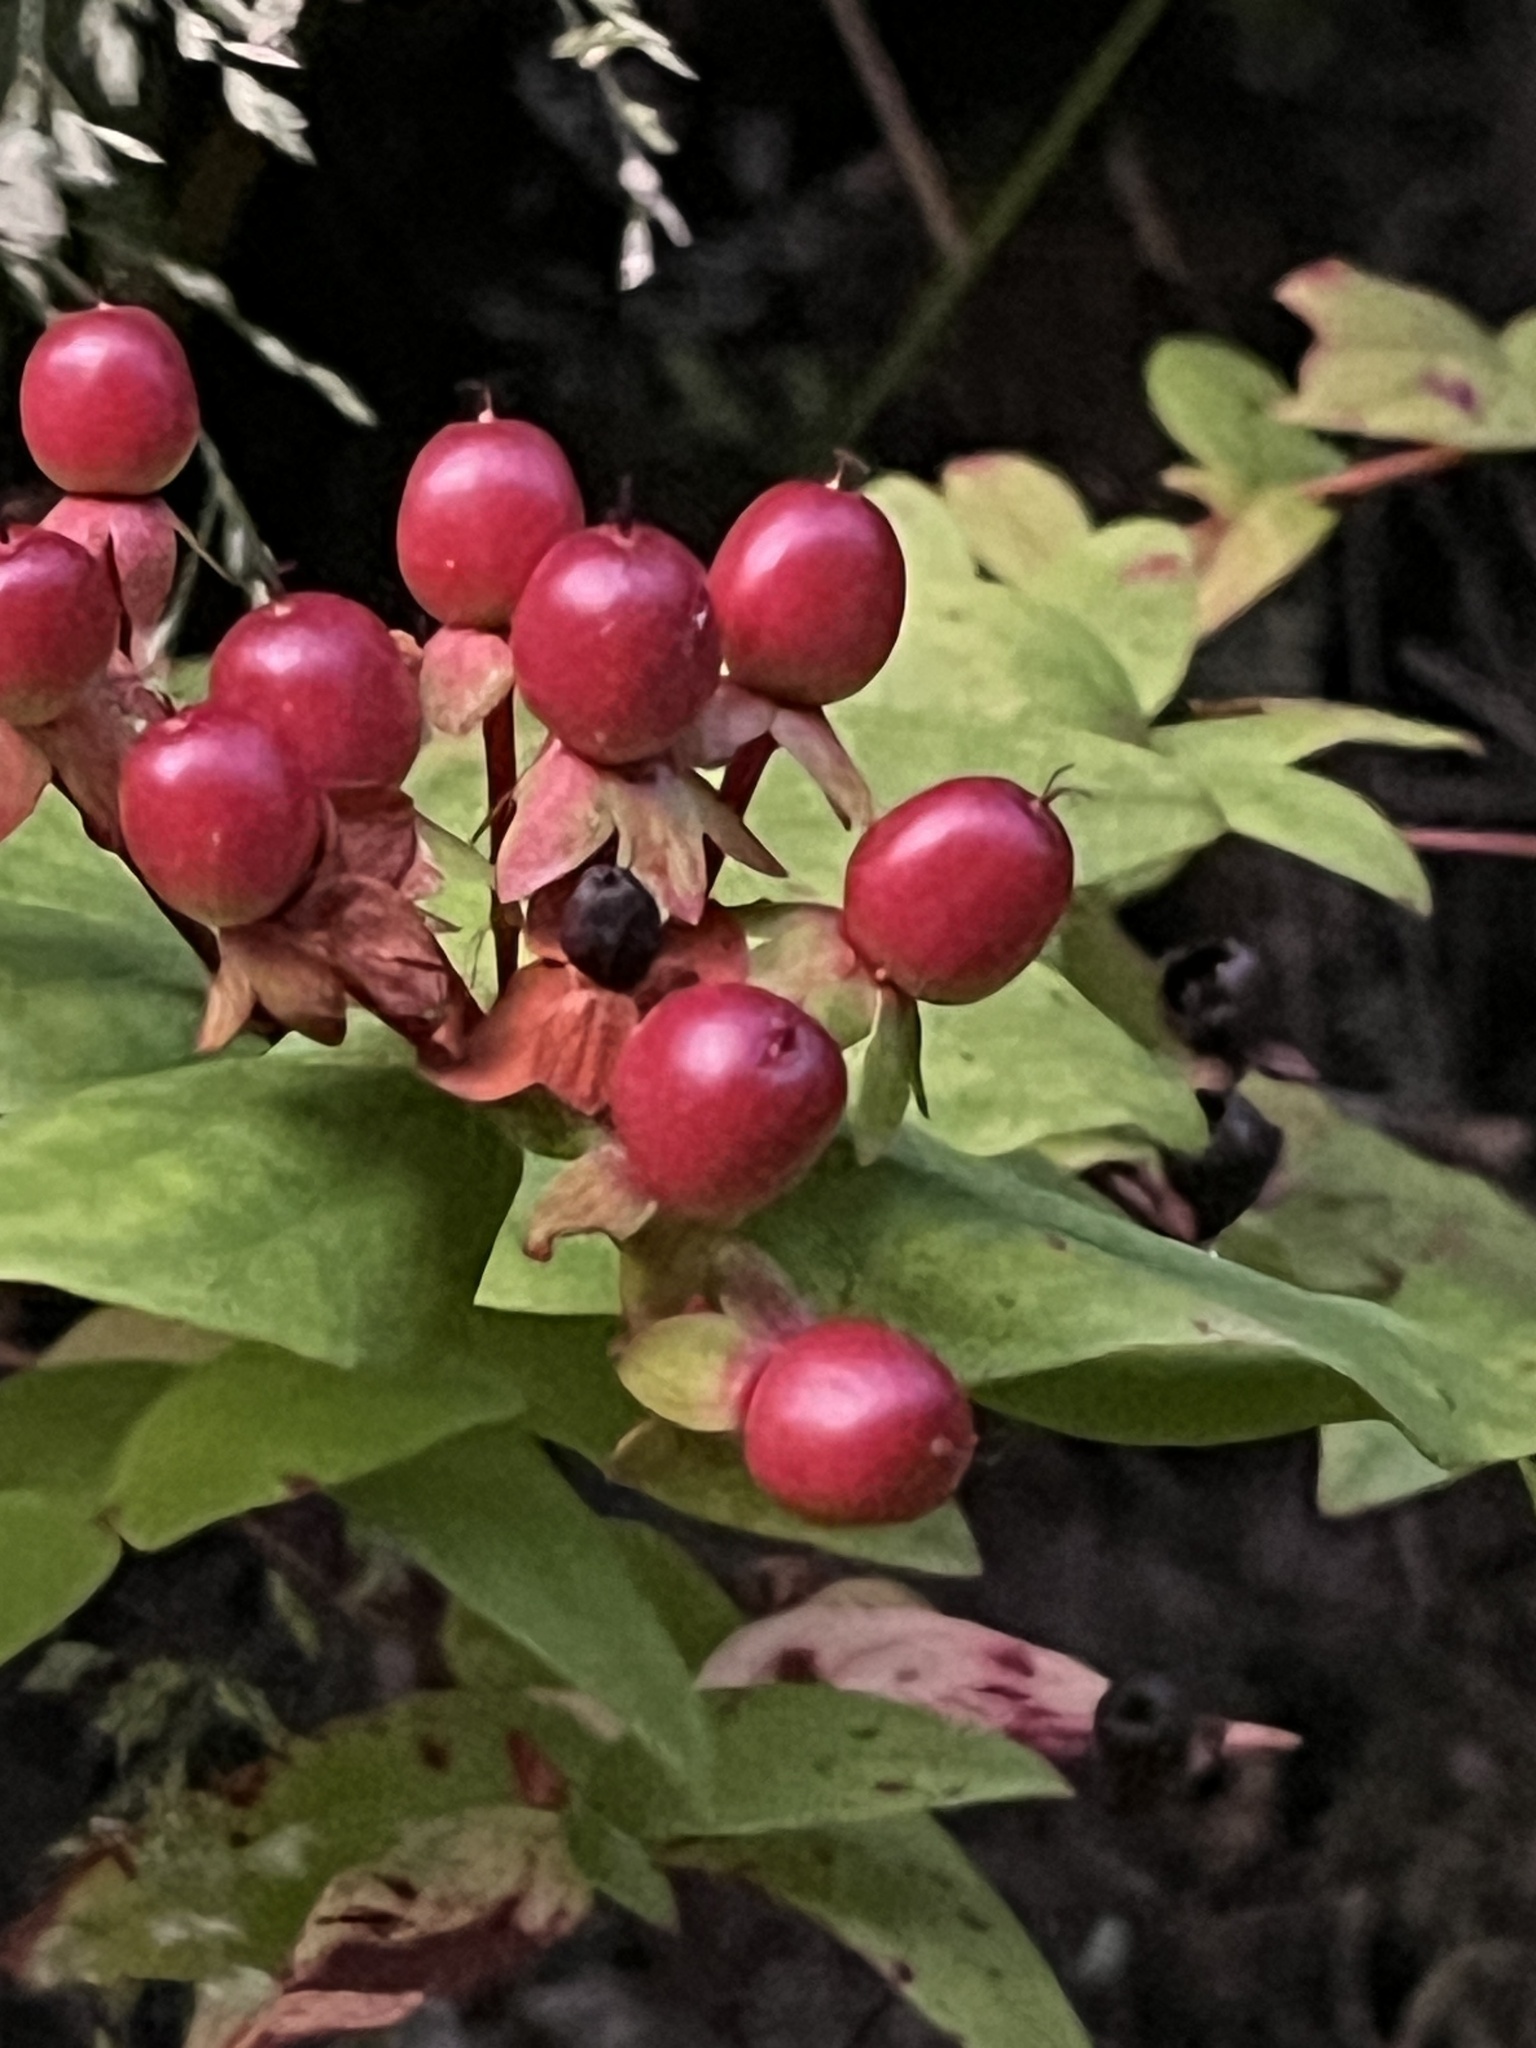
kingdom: Plantae
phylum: Tracheophyta
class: Magnoliopsida
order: Malpighiales
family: Hypericaceae
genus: Hypericum
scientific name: Hypericum androsaemum
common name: Sweet-amber
